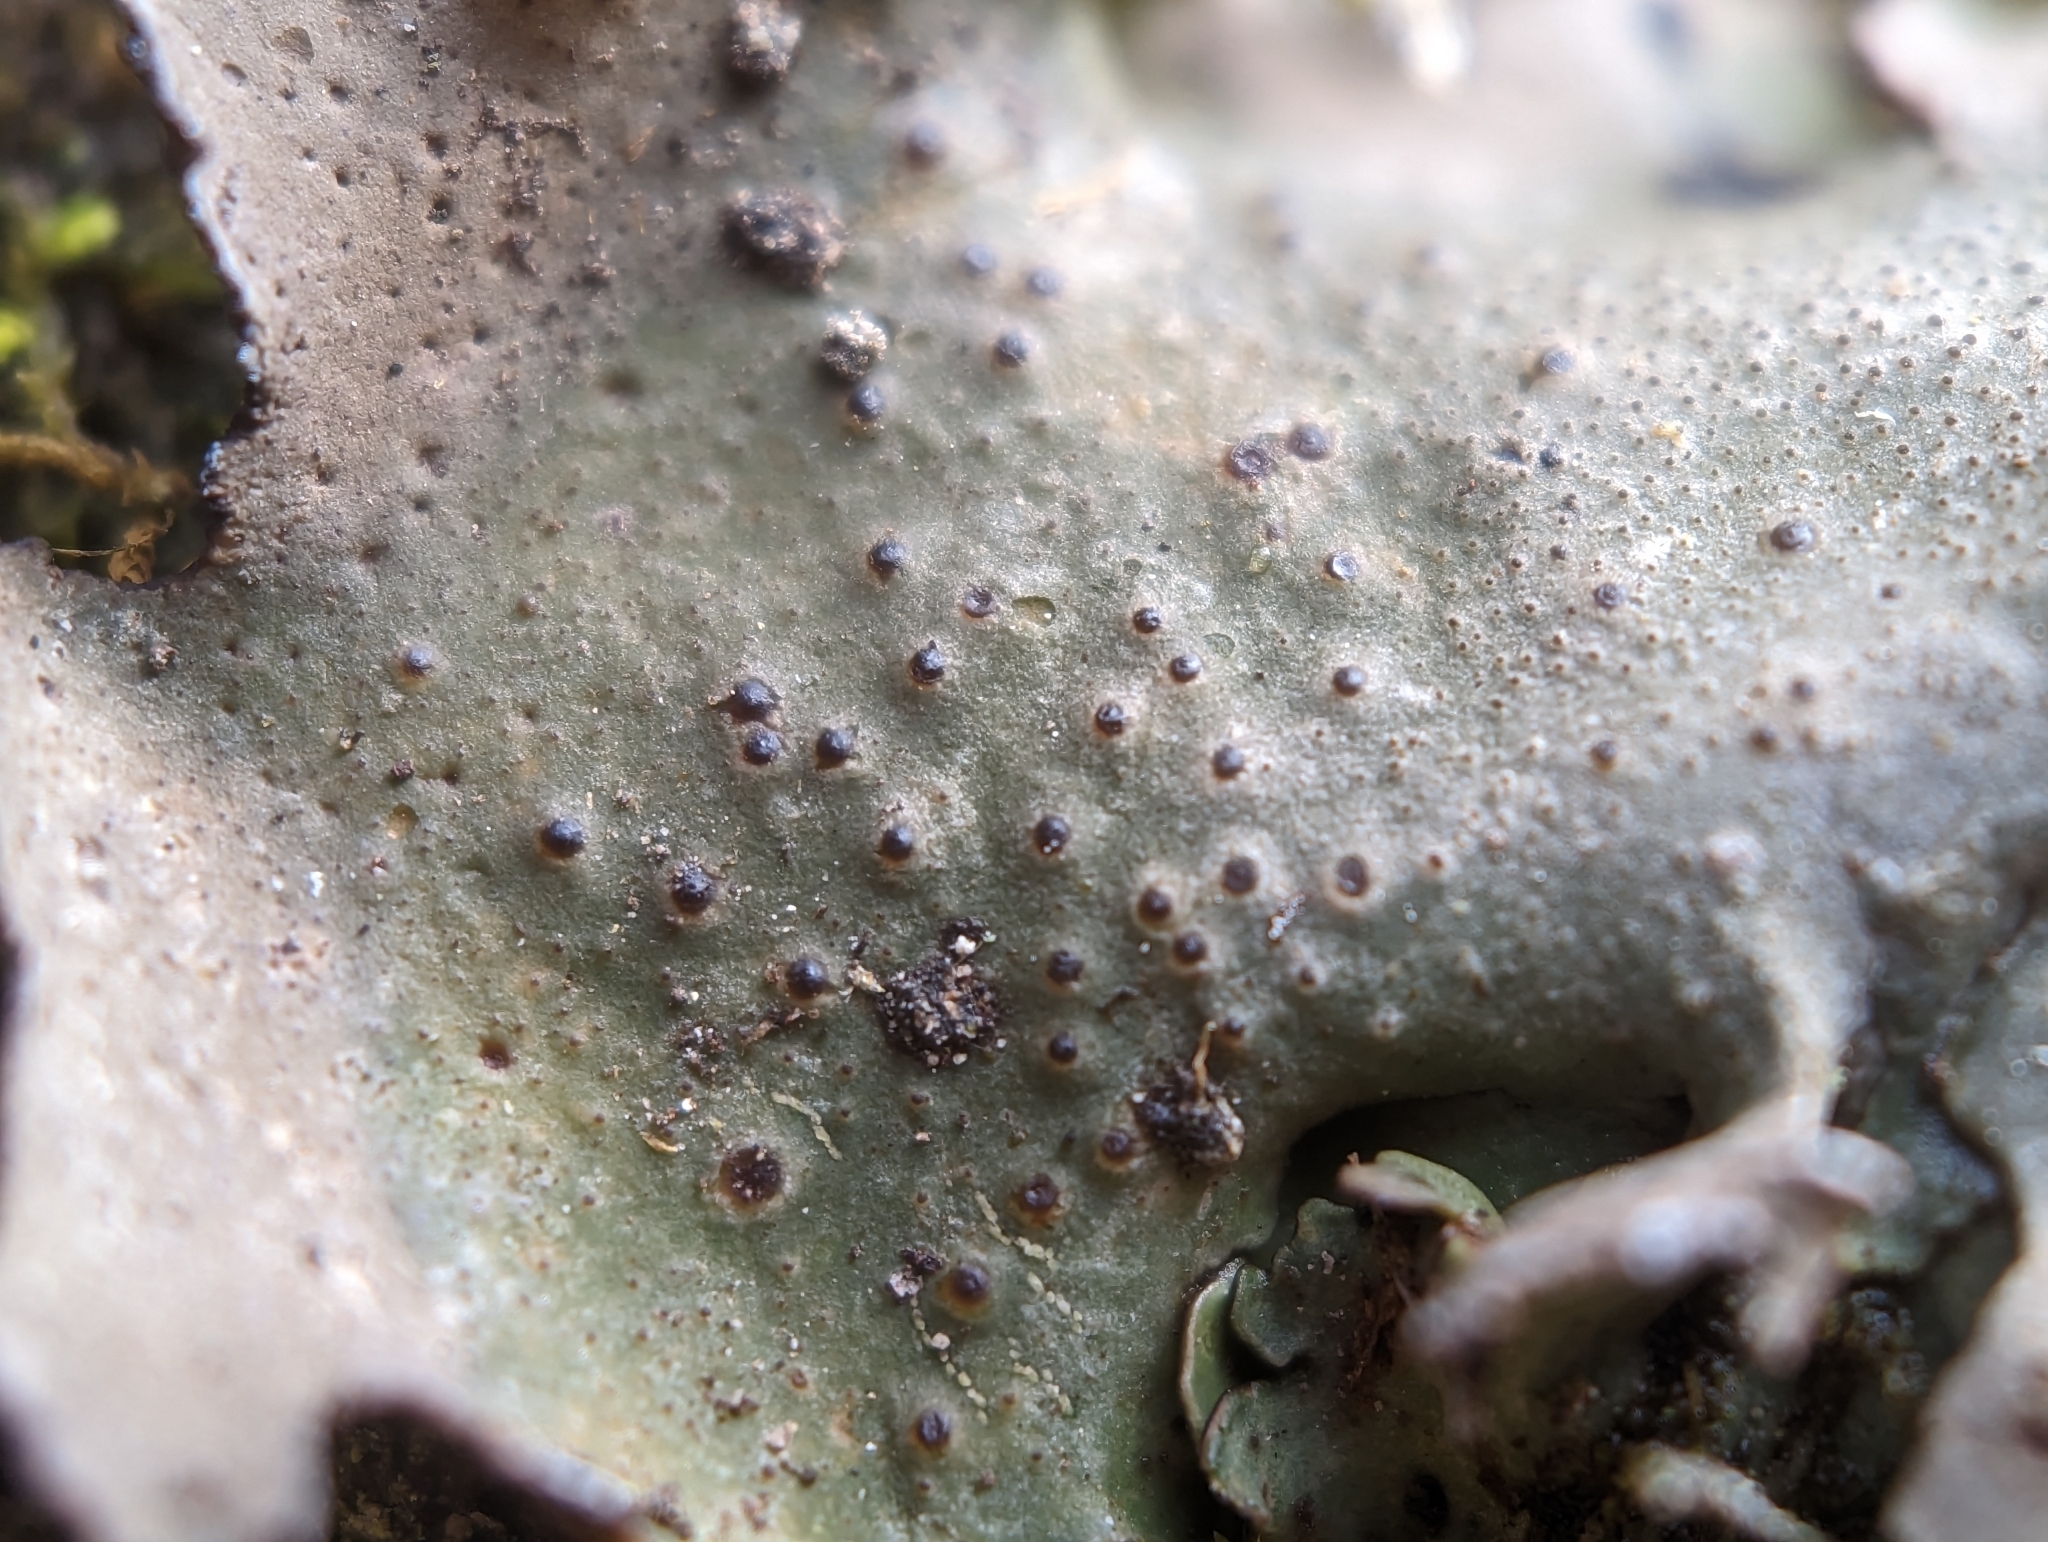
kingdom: Fungi
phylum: Ascomycota
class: Eurotiomycetes
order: Verrucariales
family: Verrucariaceae
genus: Dermatocarpon
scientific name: Dermatocarpon muhlenbergii
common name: Muhlenberg's stippleback lichen
